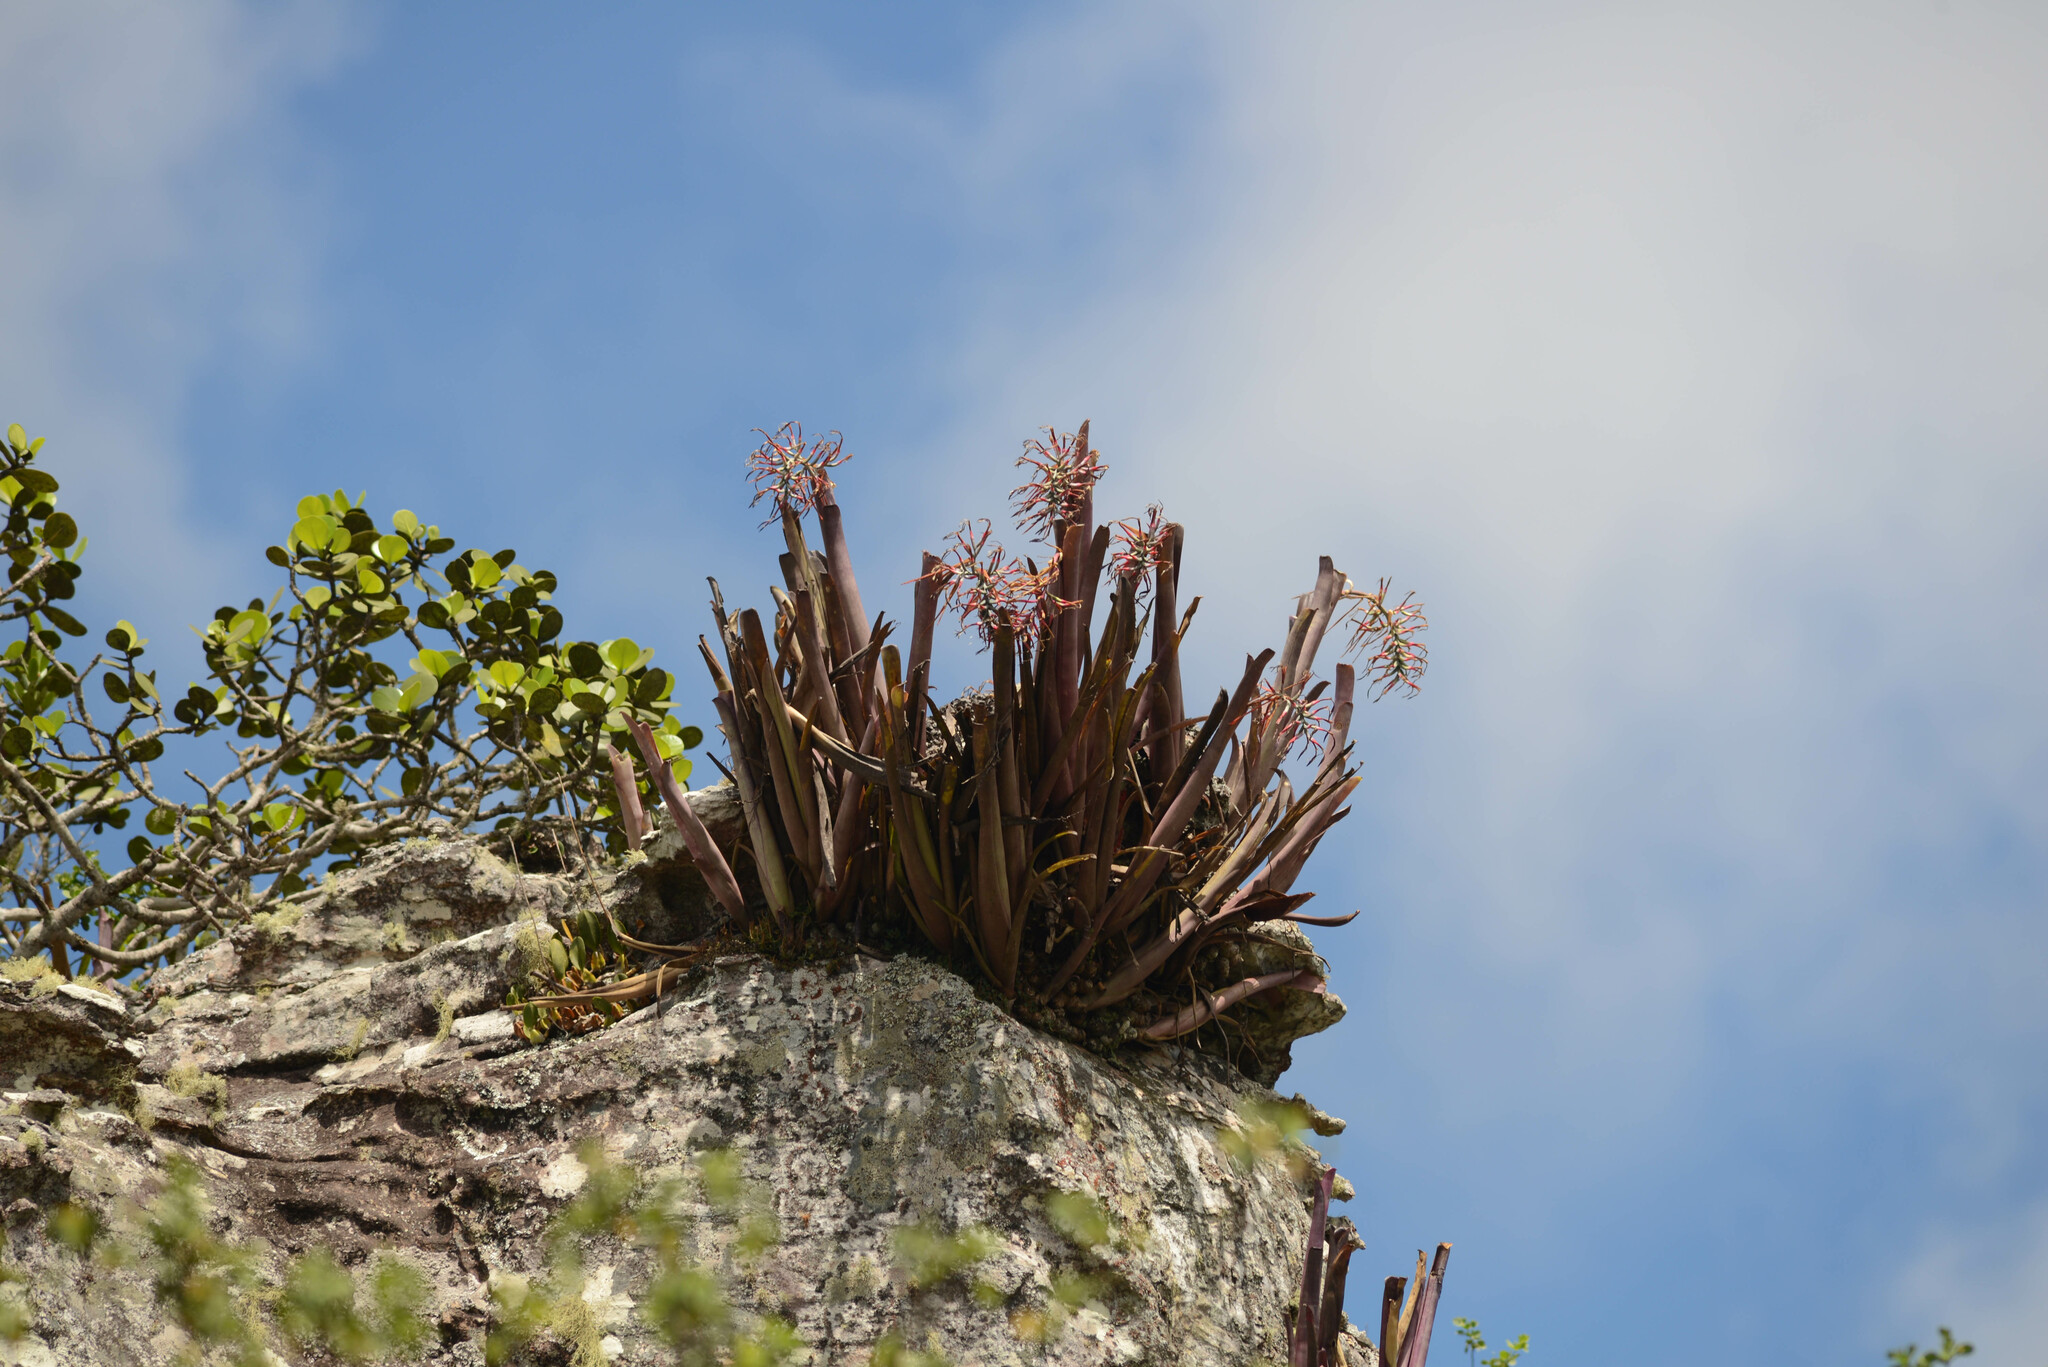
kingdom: Plantae
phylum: Tracheophyta
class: Liliopsida
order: Poales
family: Bromeliaceae
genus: Billbergia
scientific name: Billbergia vittata
